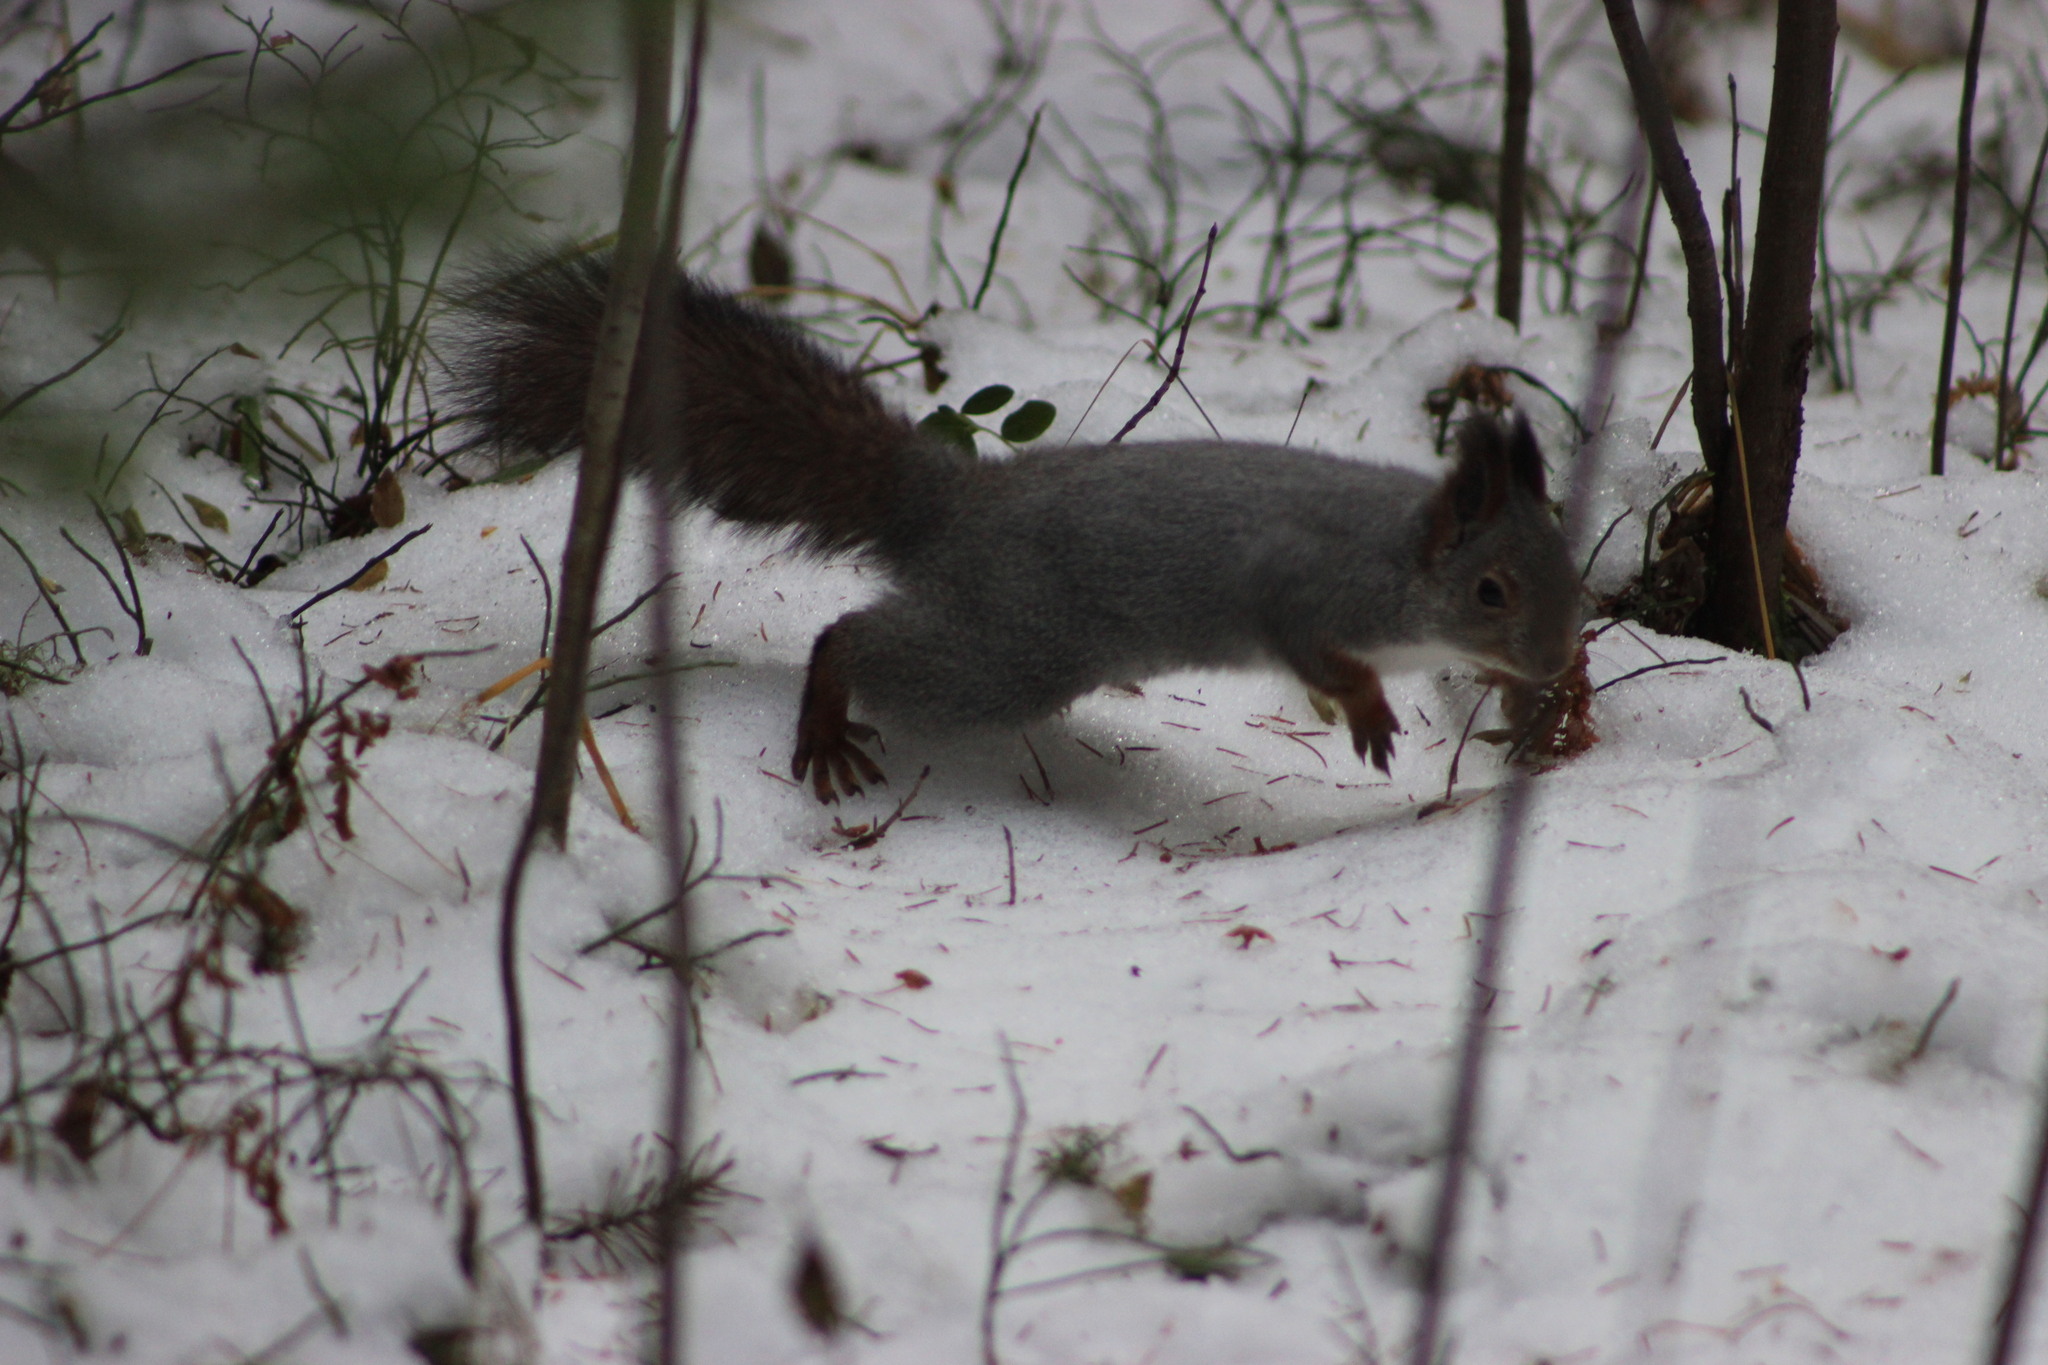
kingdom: Animalia
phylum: Chordata
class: Mammalia
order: Rodentia
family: Sciuridae
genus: Sciurus
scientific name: Sciurus vulgaris
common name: Eurasian red squirrel
